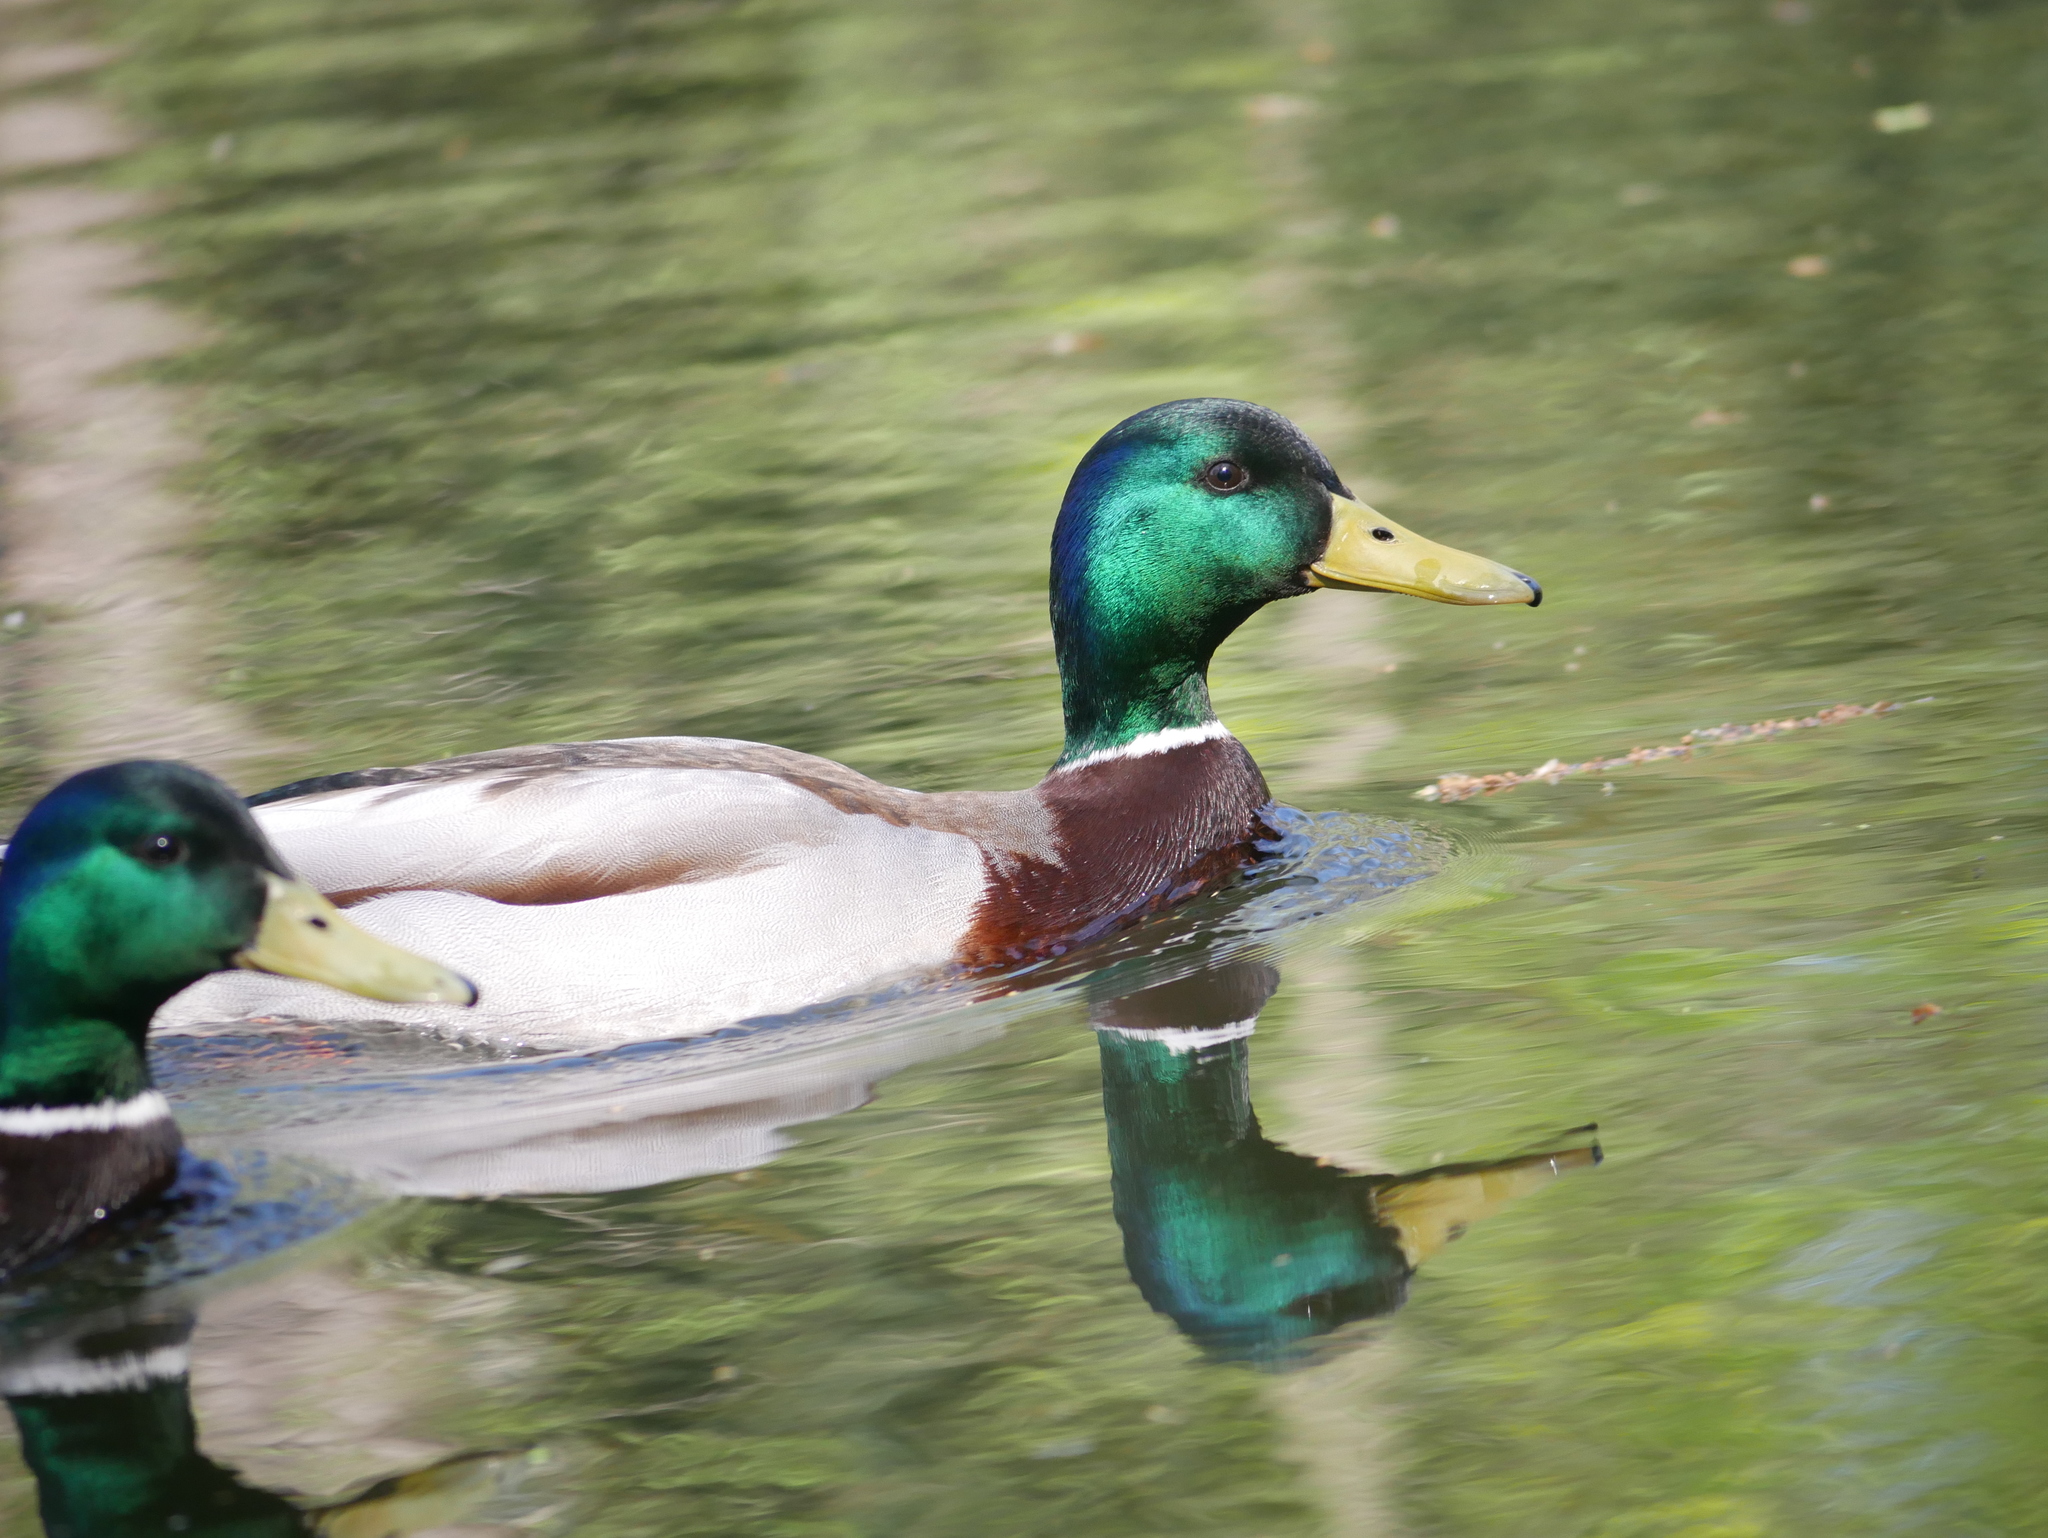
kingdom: Animalia
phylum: Chordata
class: Aves
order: Anseriformes
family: Anatidae
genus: Anas
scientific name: Anas platyrhynchos
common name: Mallard
